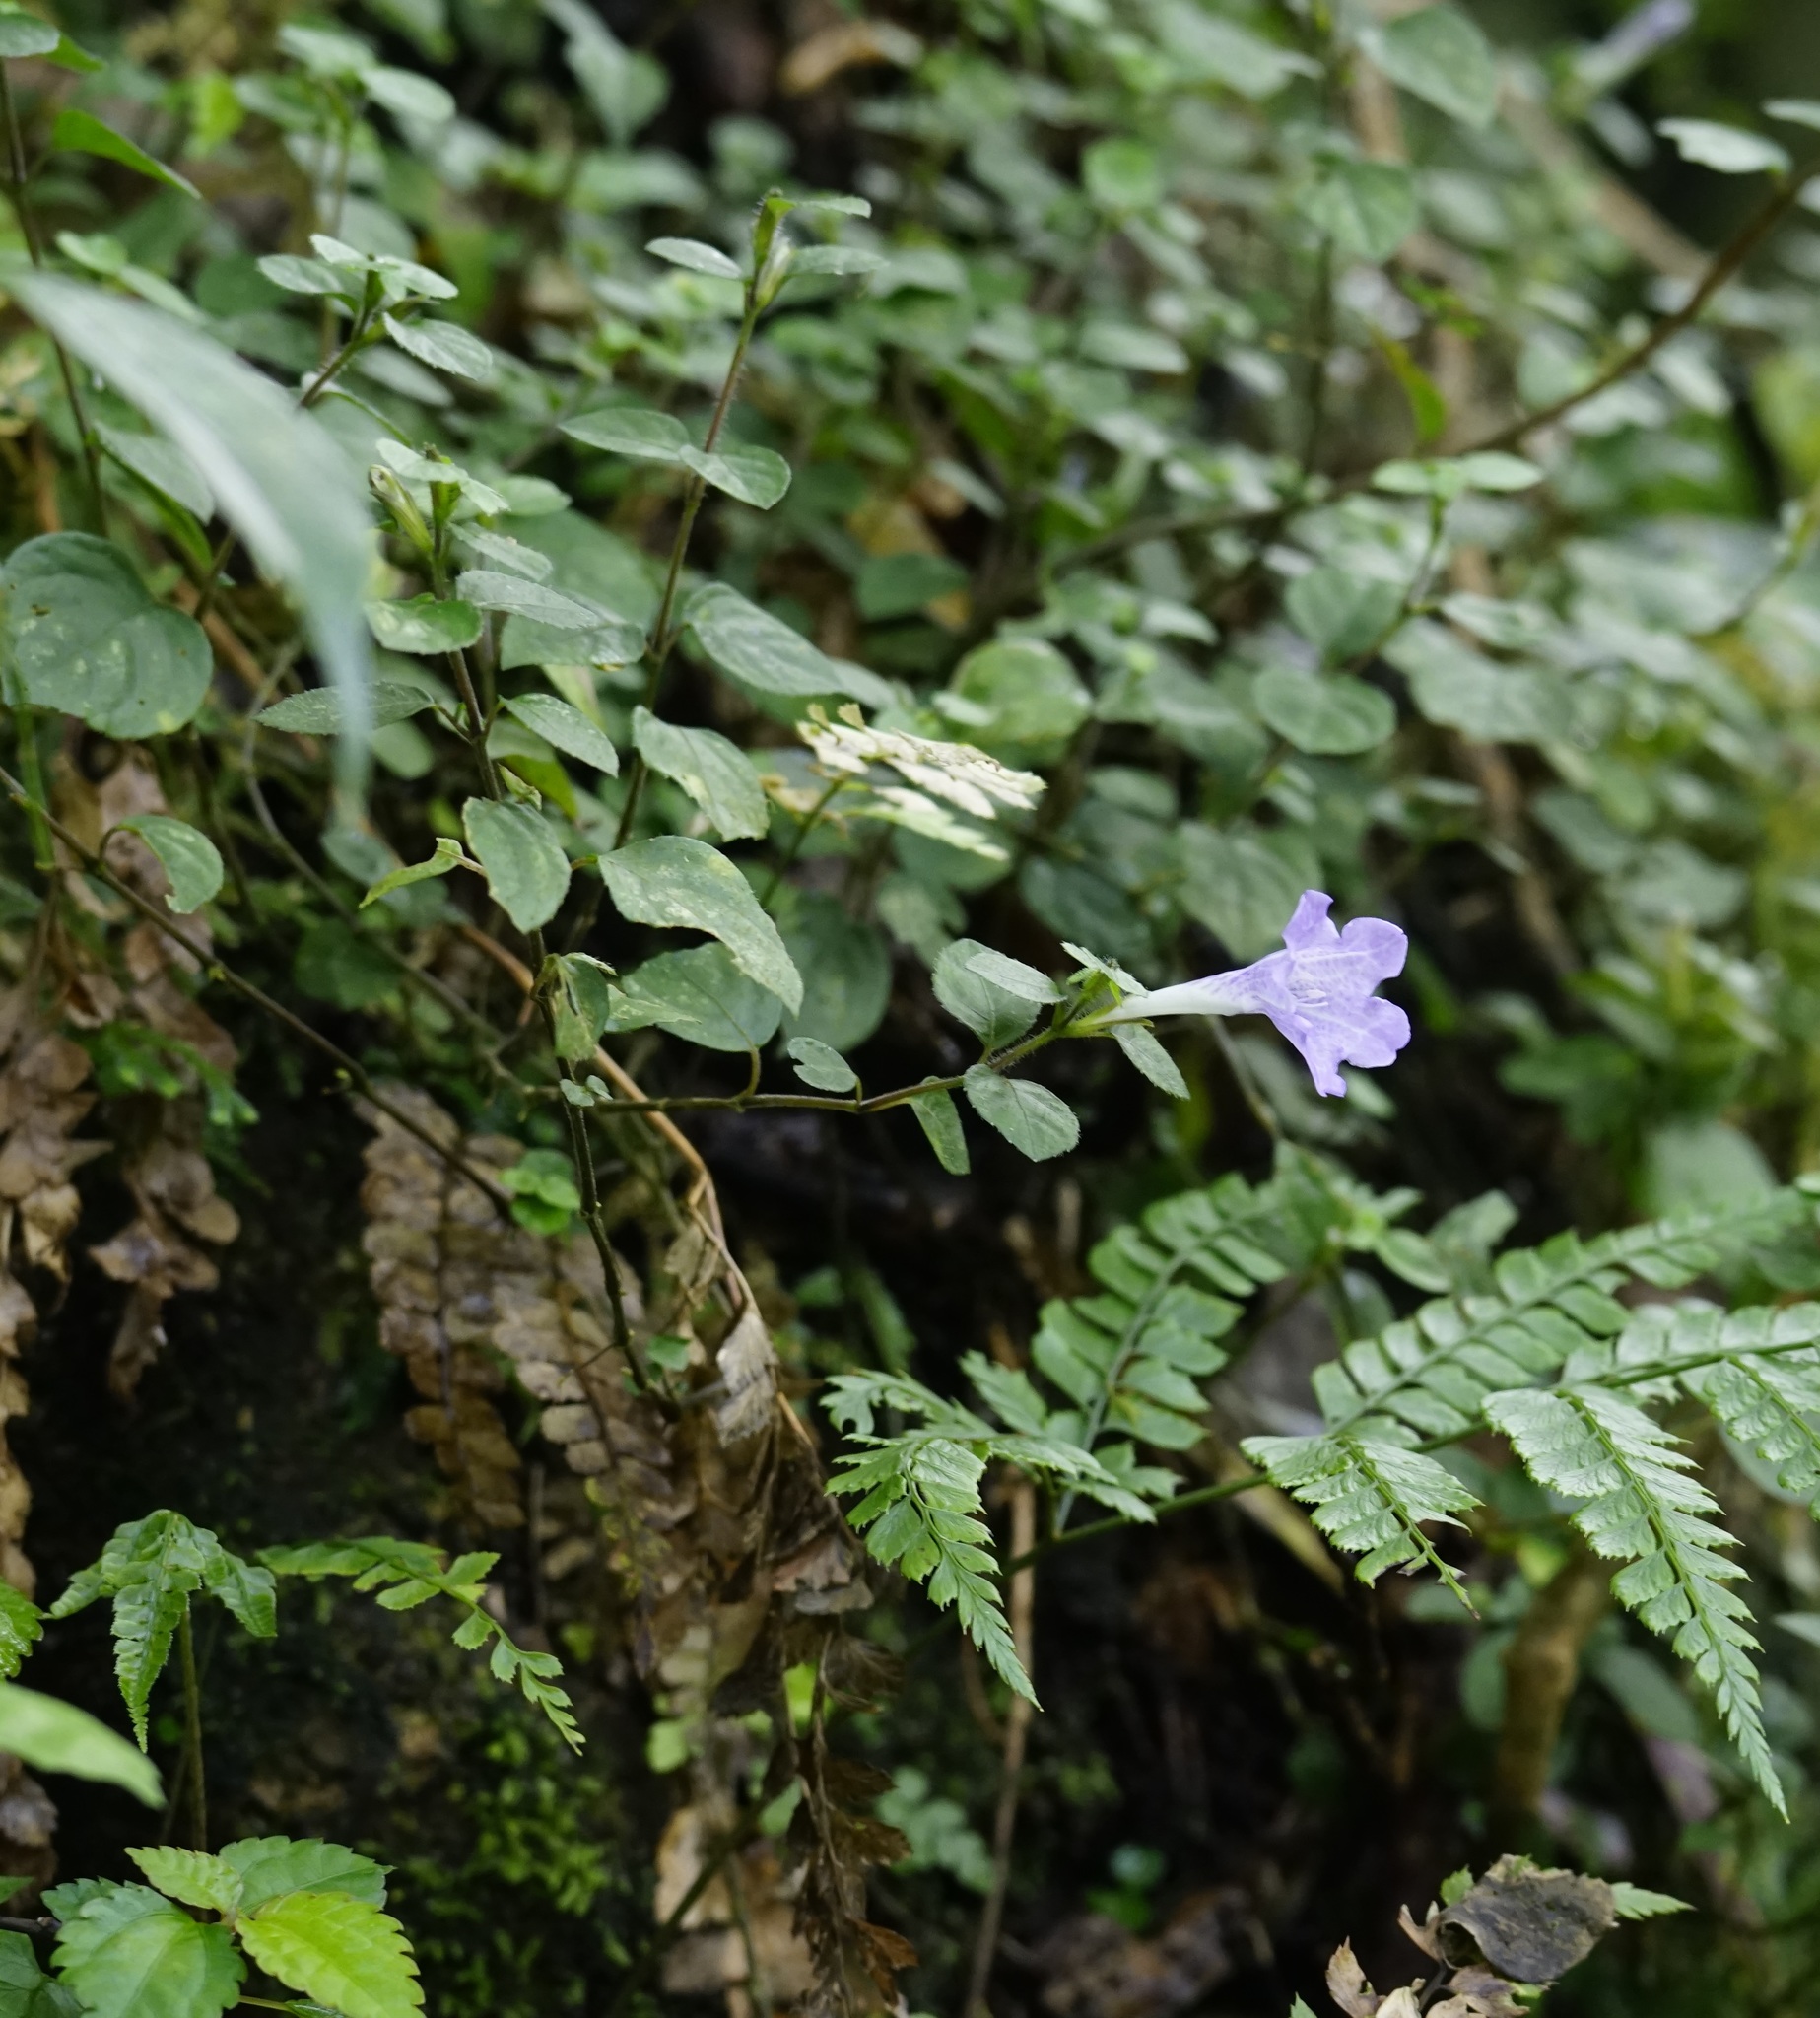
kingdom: Plantae
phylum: Tracheophyta
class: Magnoliopsida
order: Lamiales
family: Acanthaceae
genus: Strobilanthes
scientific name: Strobilanthes rankanensis
